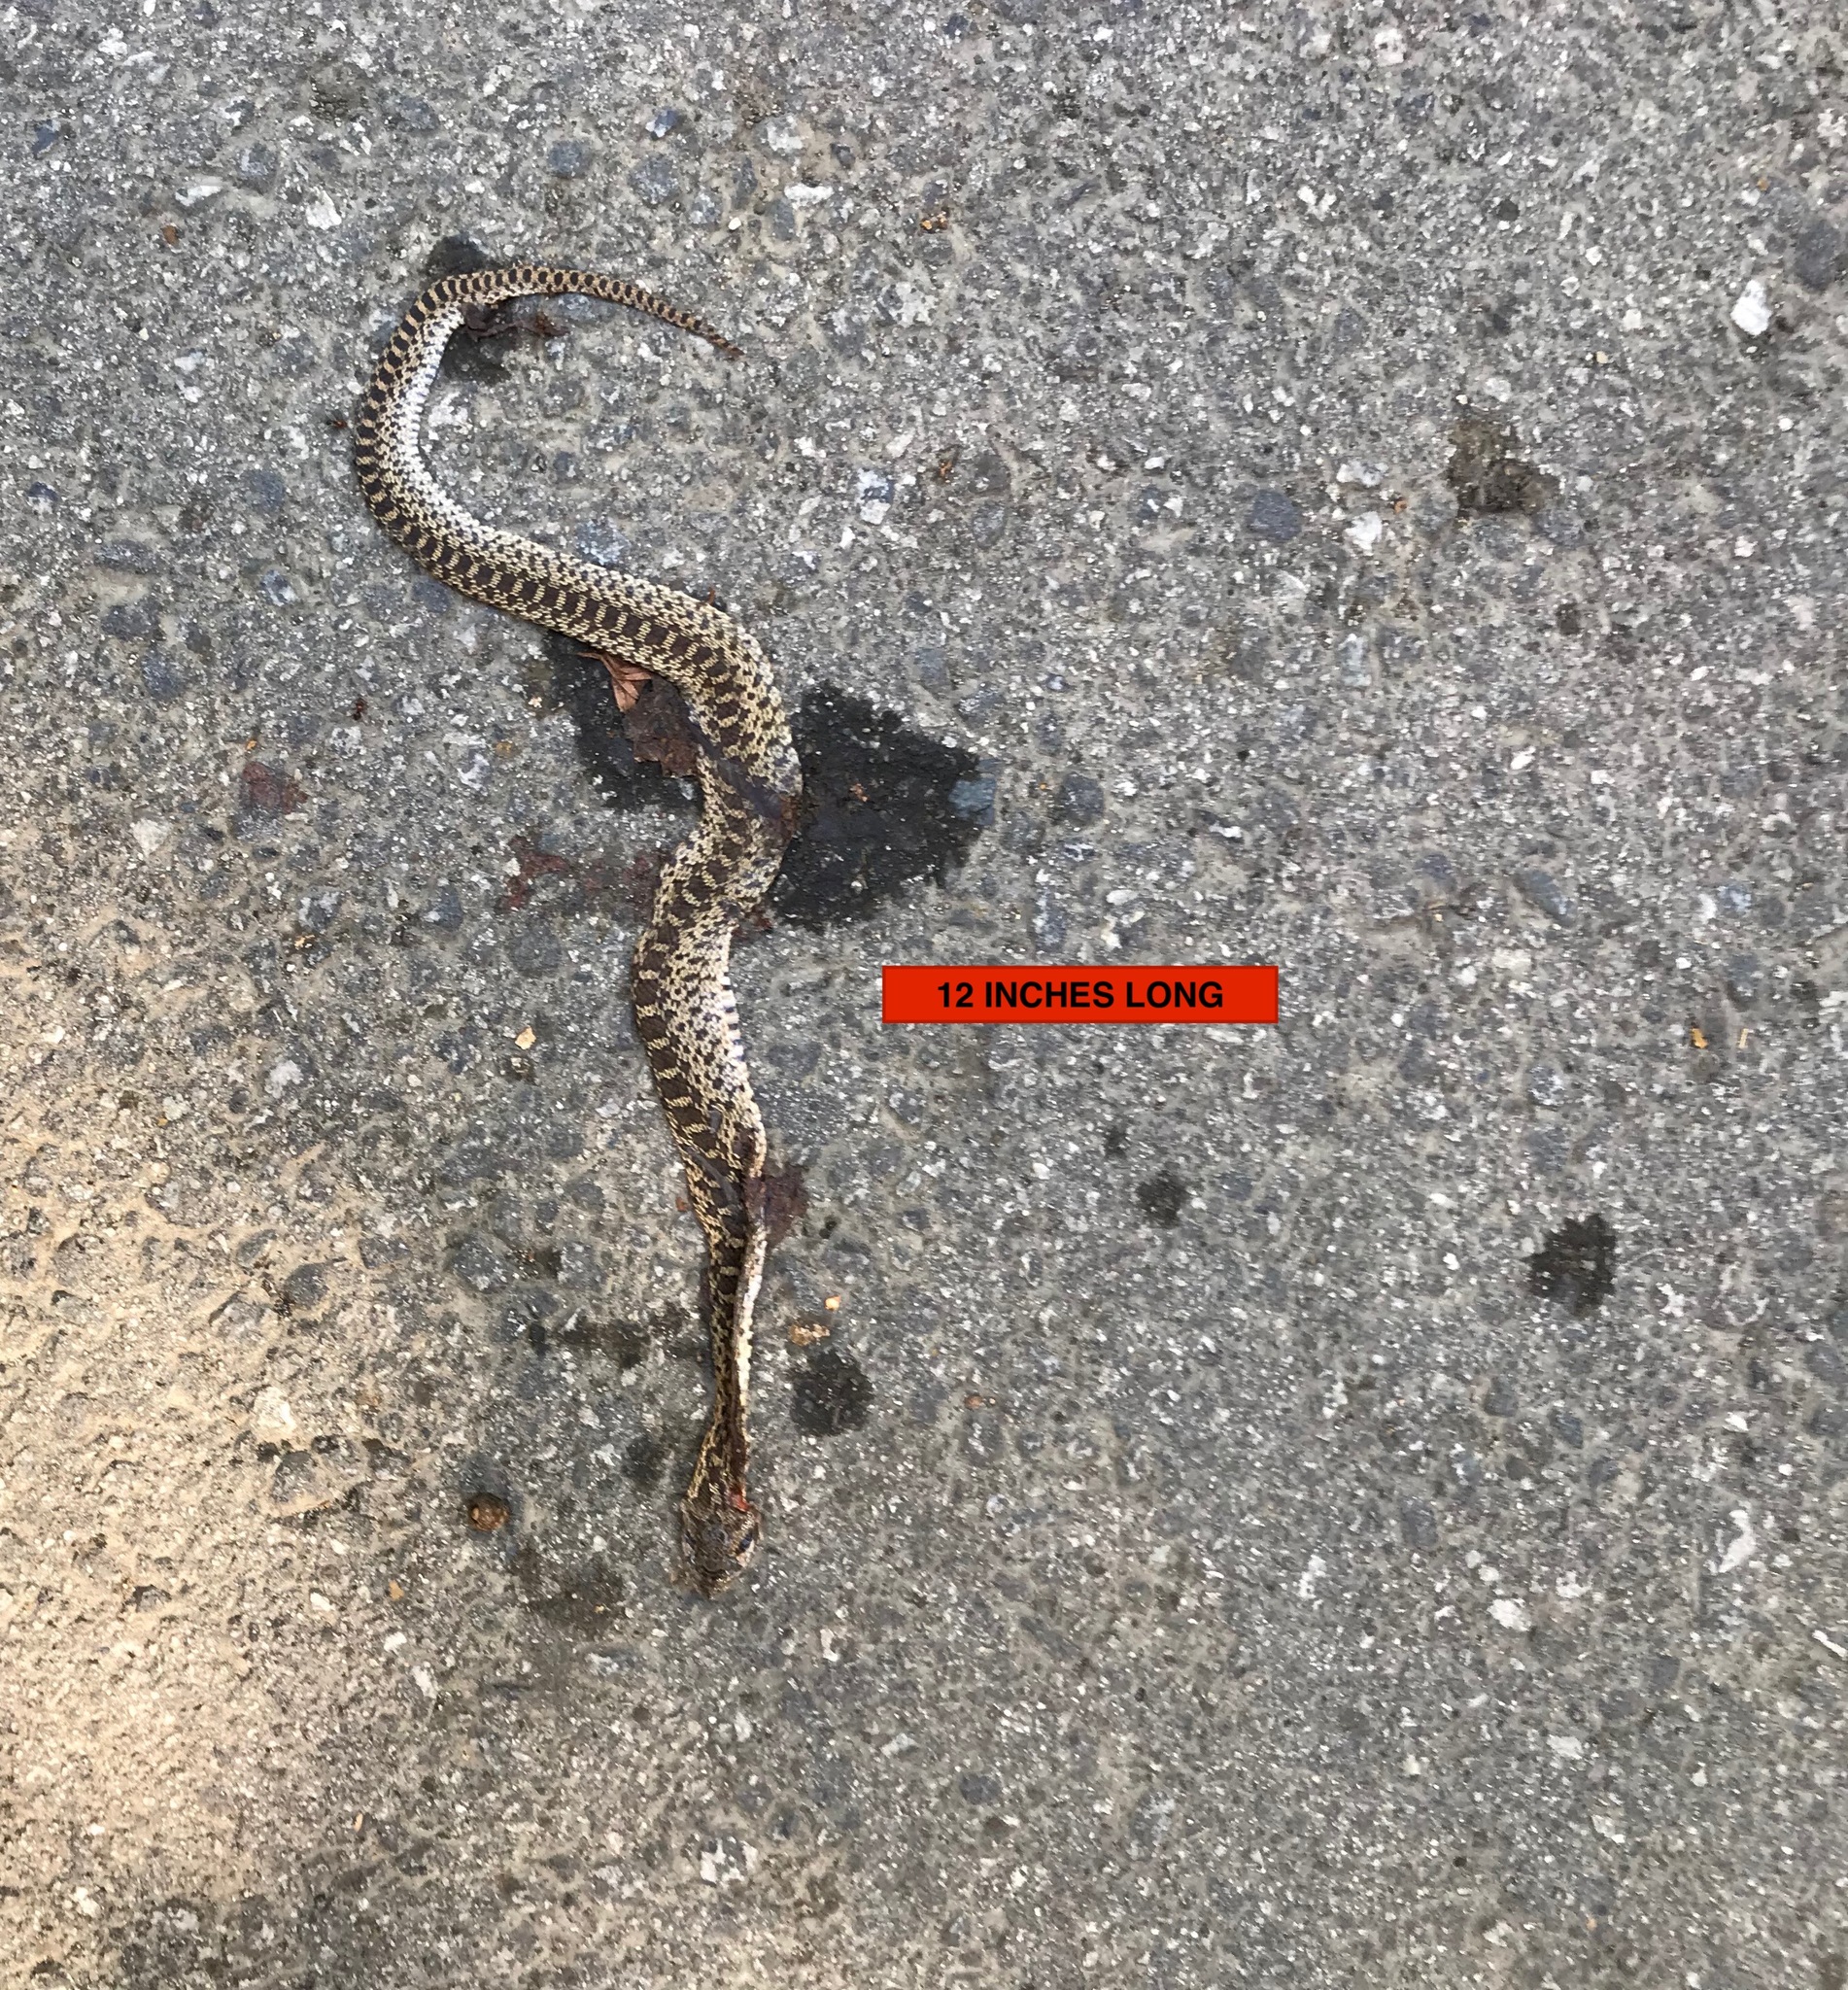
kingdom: Animalia
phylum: Chordata
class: Squamata
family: Colubridae
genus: Pituophis
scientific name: Pituophis catenifer
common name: Gopher snake
